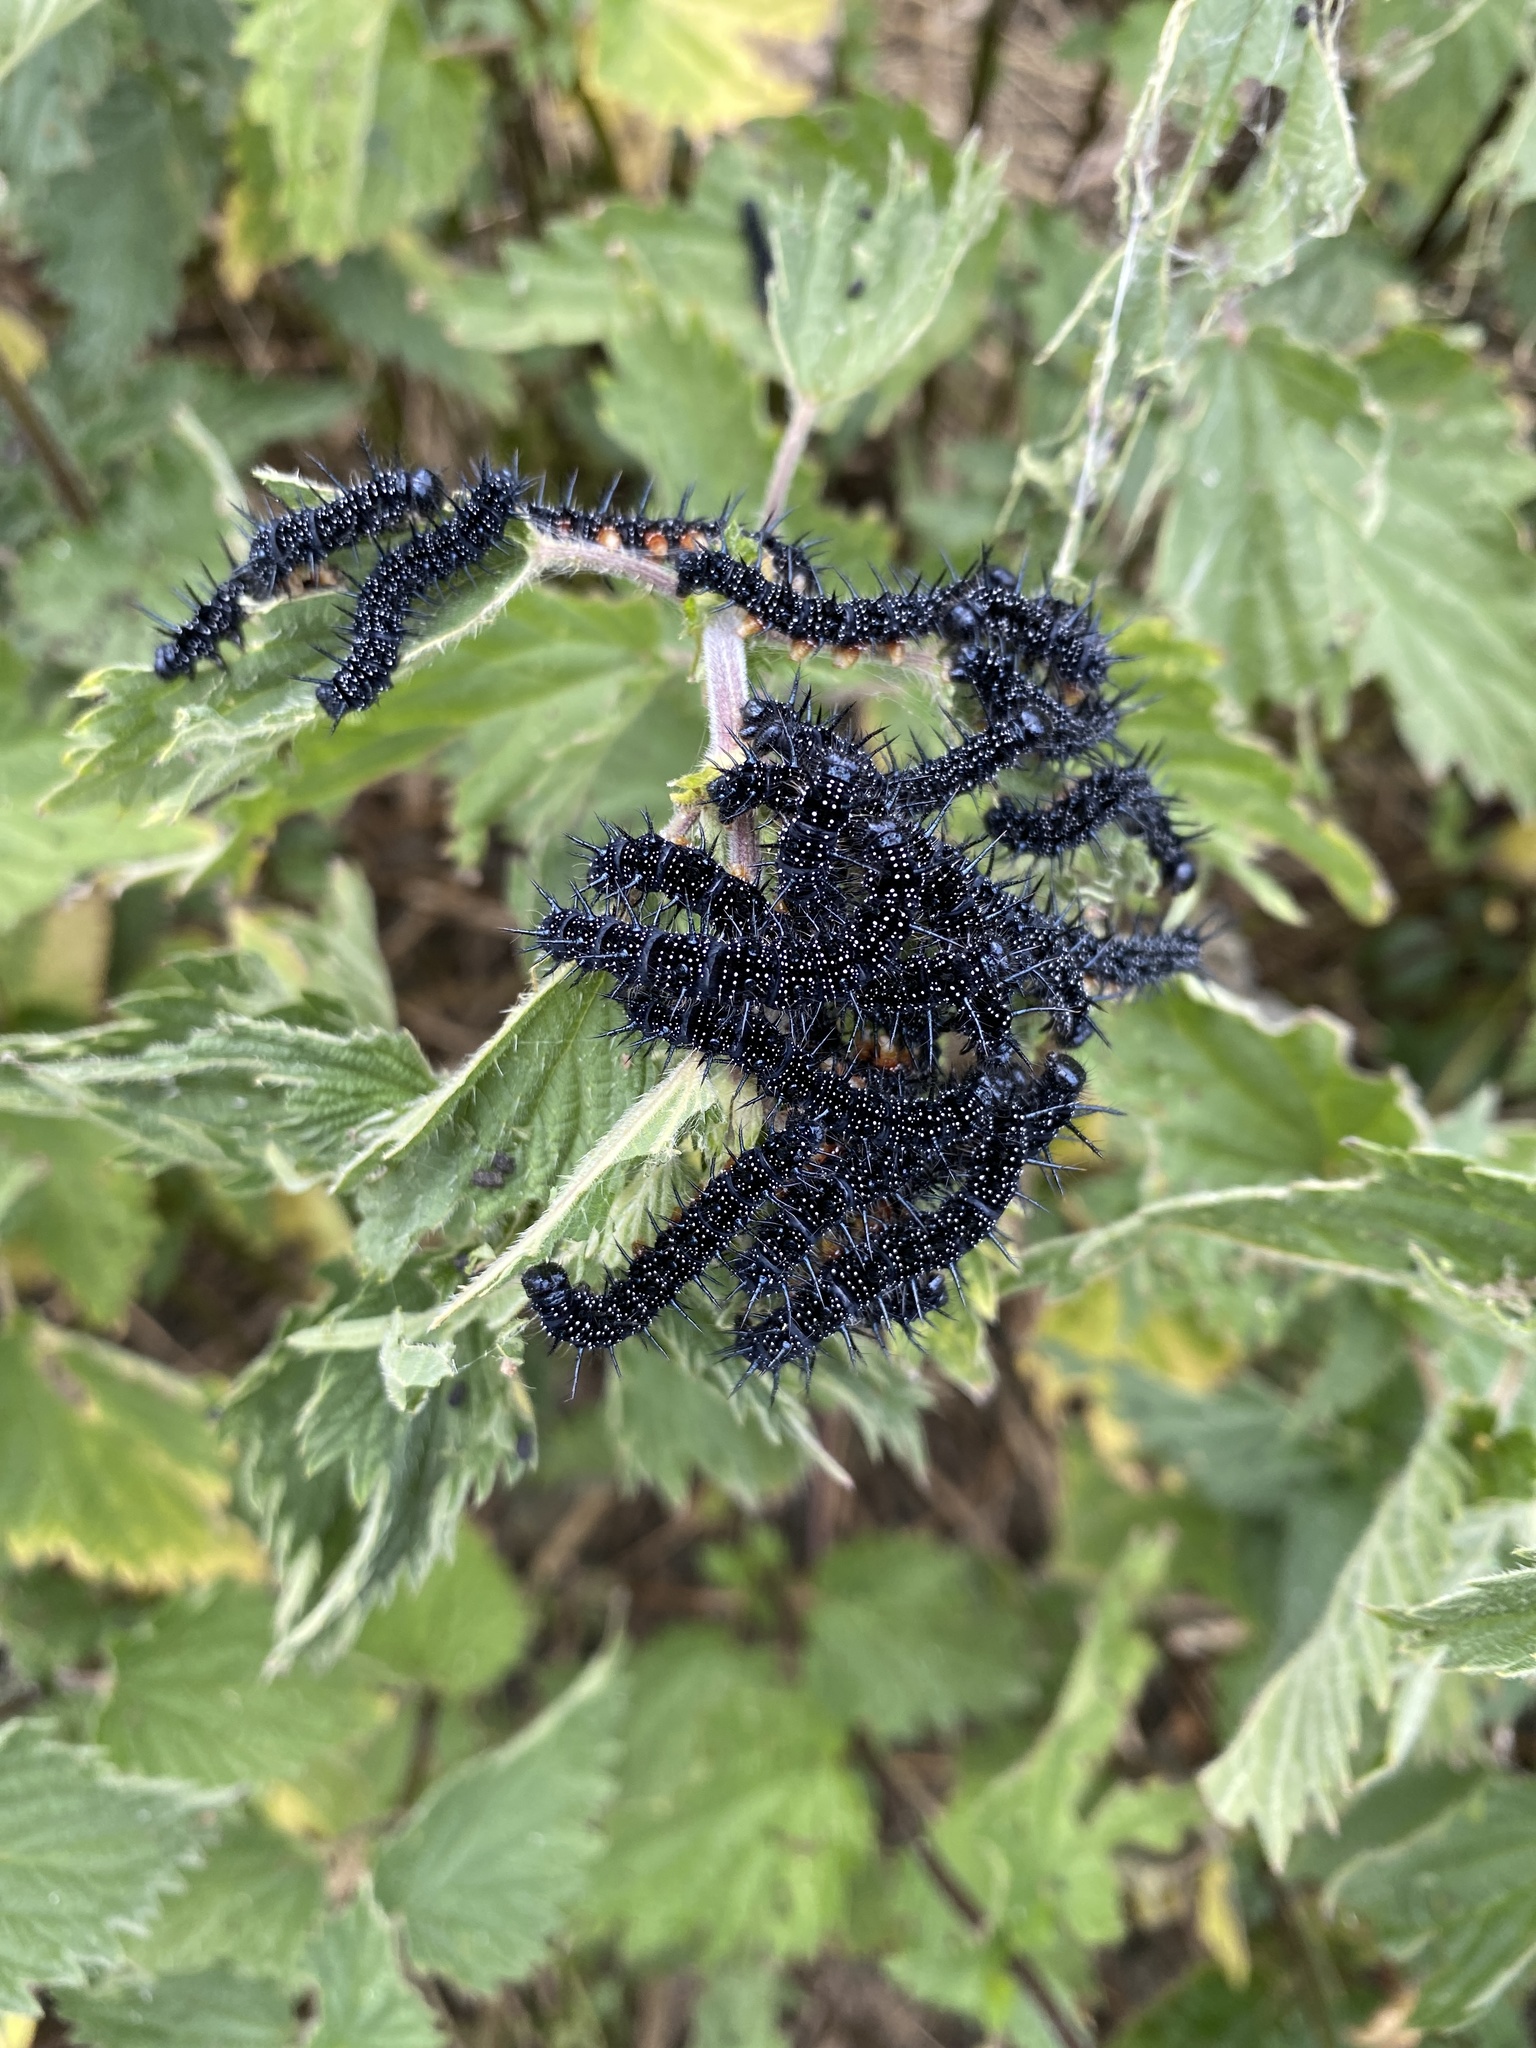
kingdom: Animalia
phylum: Arthropoda
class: Insecta
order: Lepidoptera
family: Nymphalidae
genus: Aglais
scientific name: Aglais io
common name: Peacock
